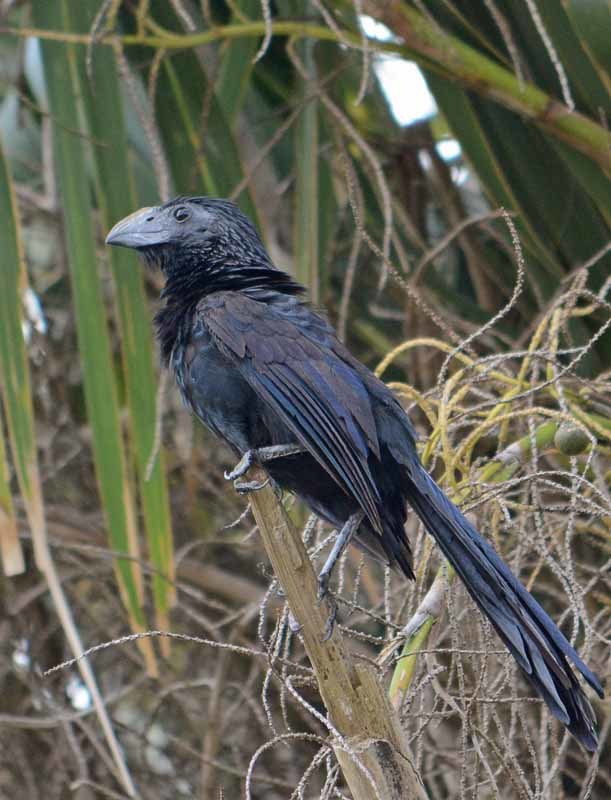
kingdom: Animalia
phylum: Chordata
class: Aves
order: Cuculiformes
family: Cuculidae
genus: Crotophaga
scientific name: Crotophaga sulcirostris
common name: Groove-billed ani
